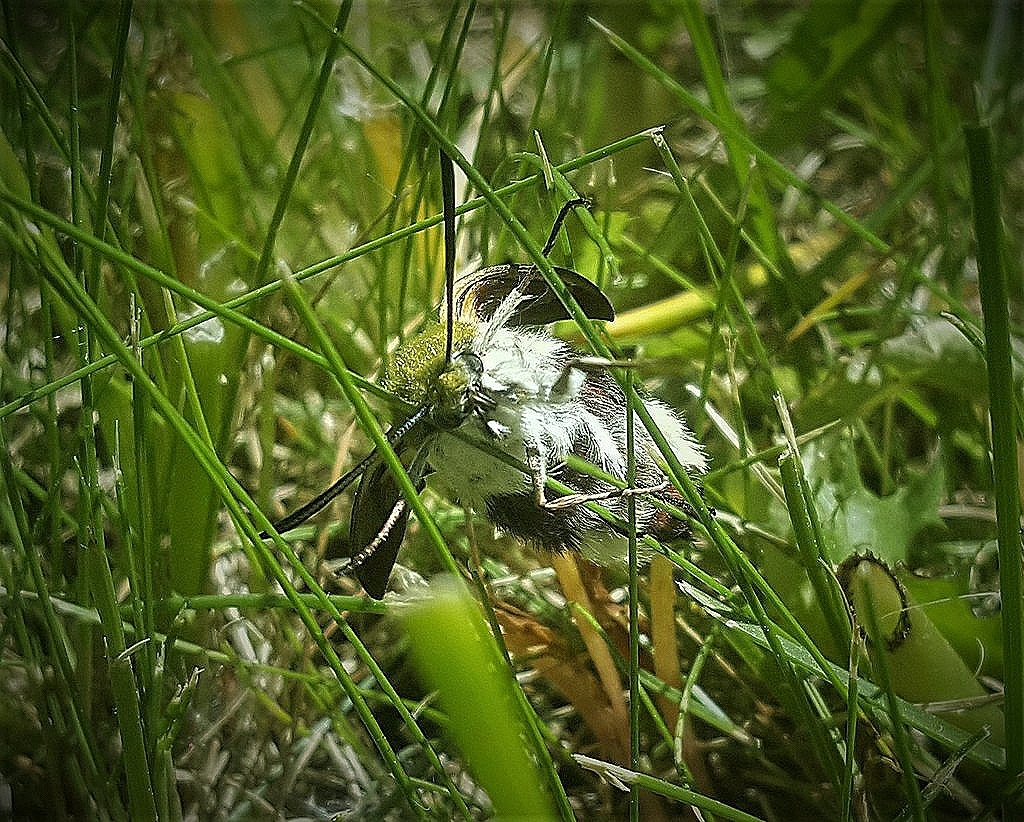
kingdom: Animalia
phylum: Arthropoda
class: Insecta
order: Lepidoptera
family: Sphingidae
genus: Hemaris
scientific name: Hemaris fuciformis
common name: Broad-bordered bee hawk-moth
